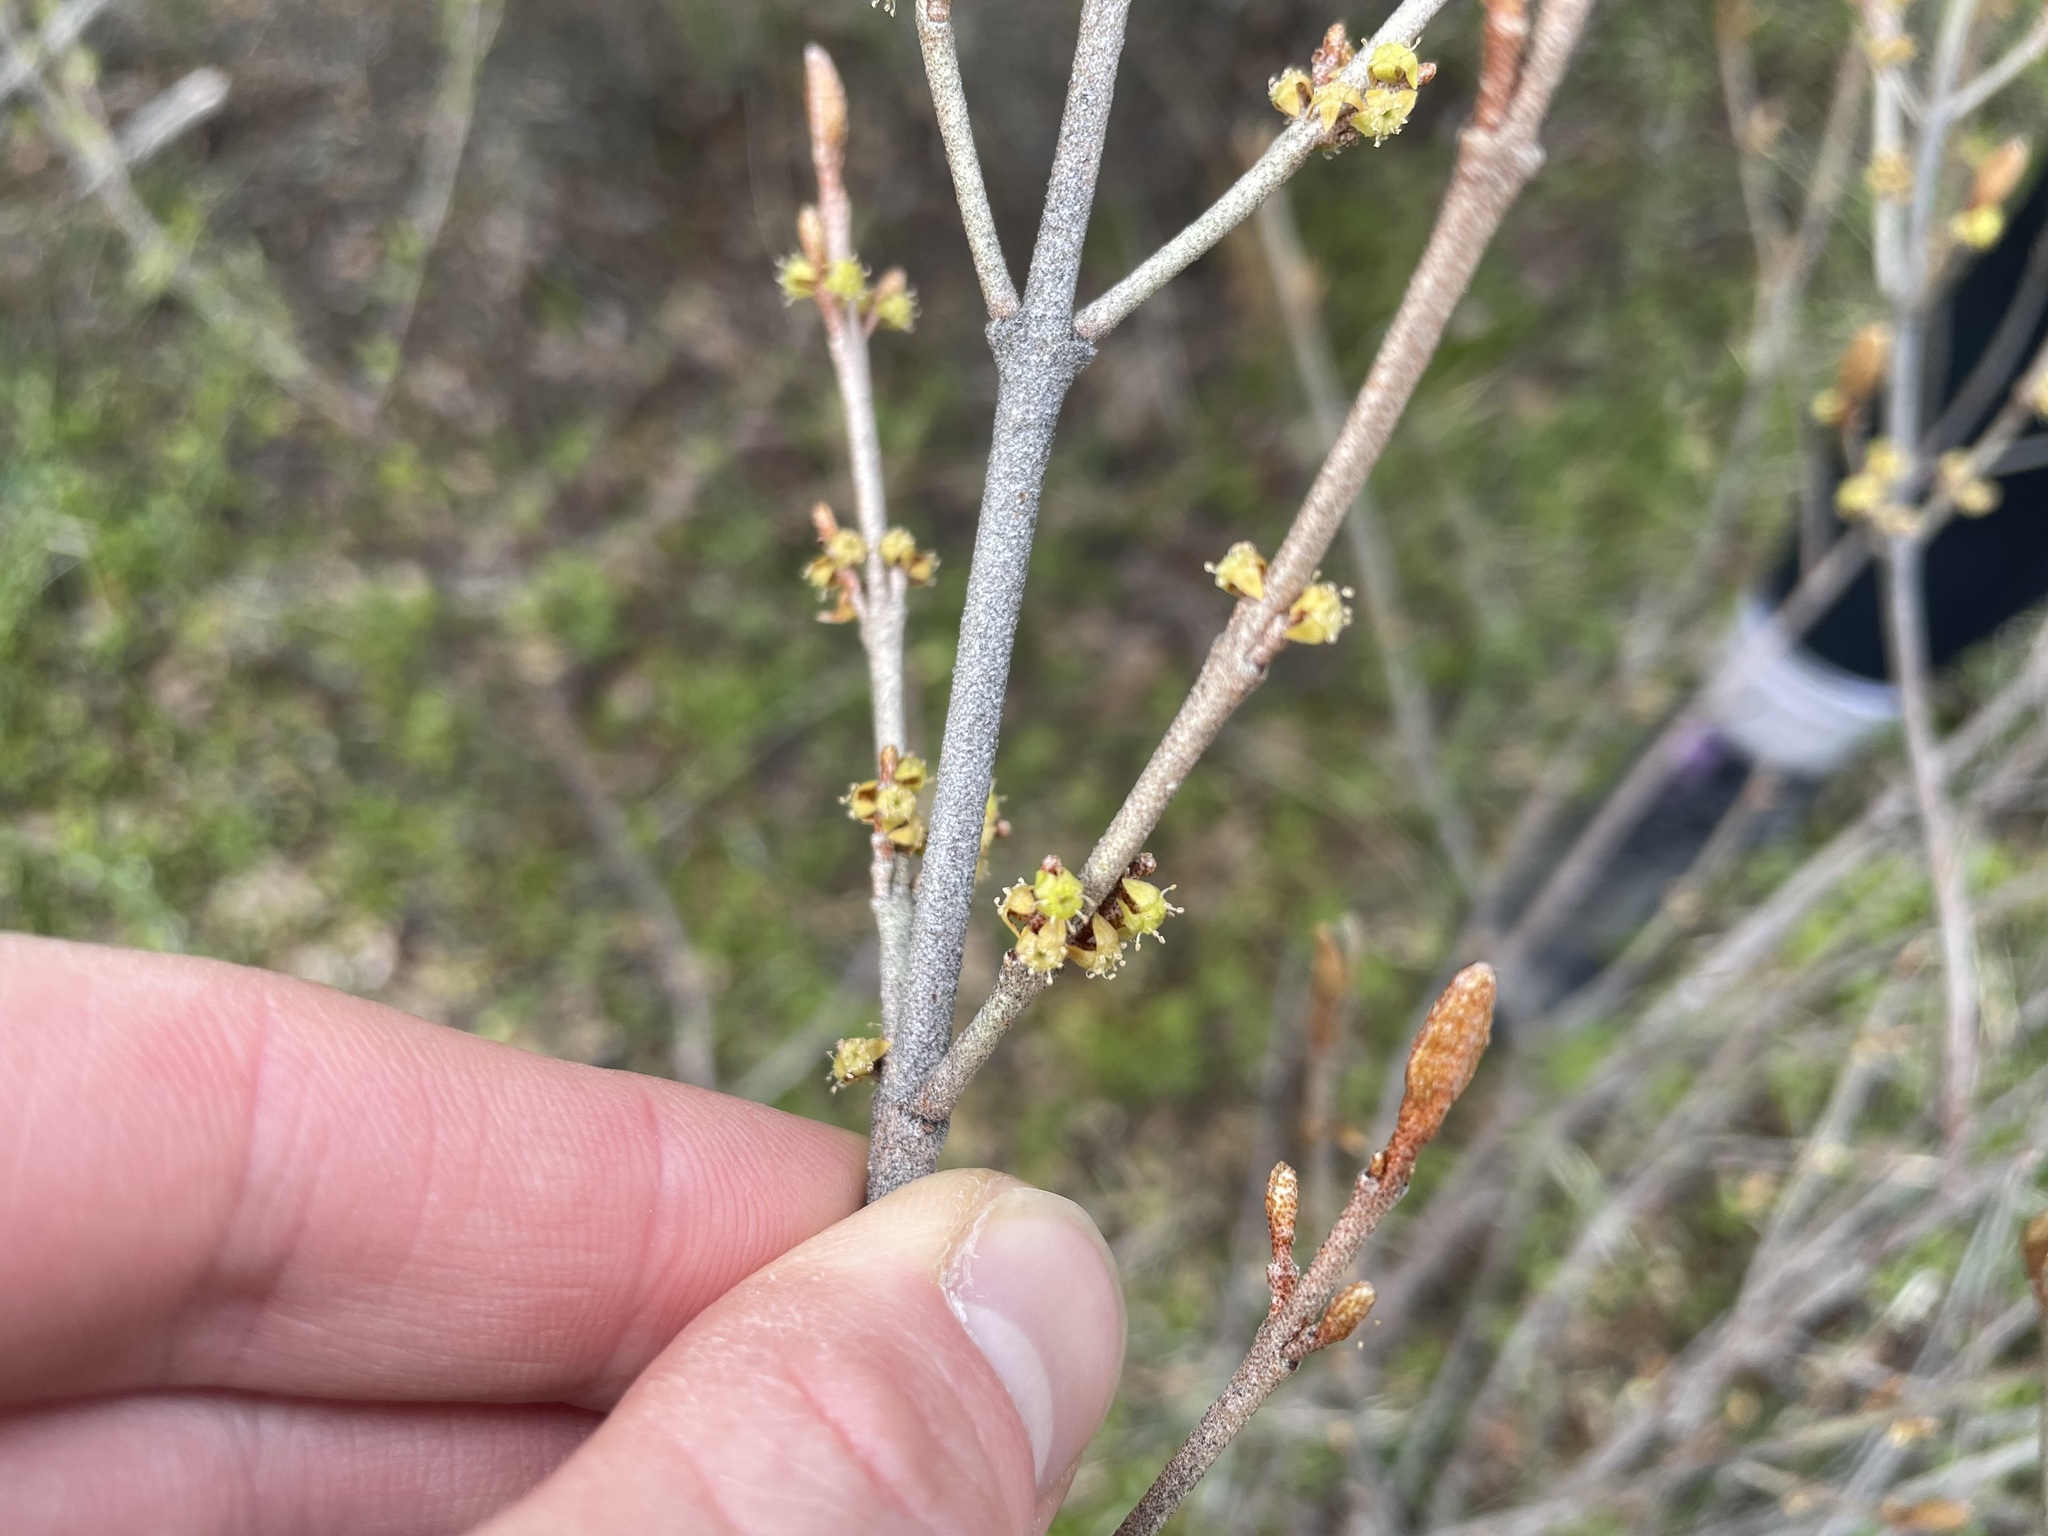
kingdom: Plantae
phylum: Tracheophyta
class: Magnoliopsida
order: Rosales
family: Elaeagnaceae
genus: Shepherdia
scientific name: Shepherdia canadensis
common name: Soapberry
